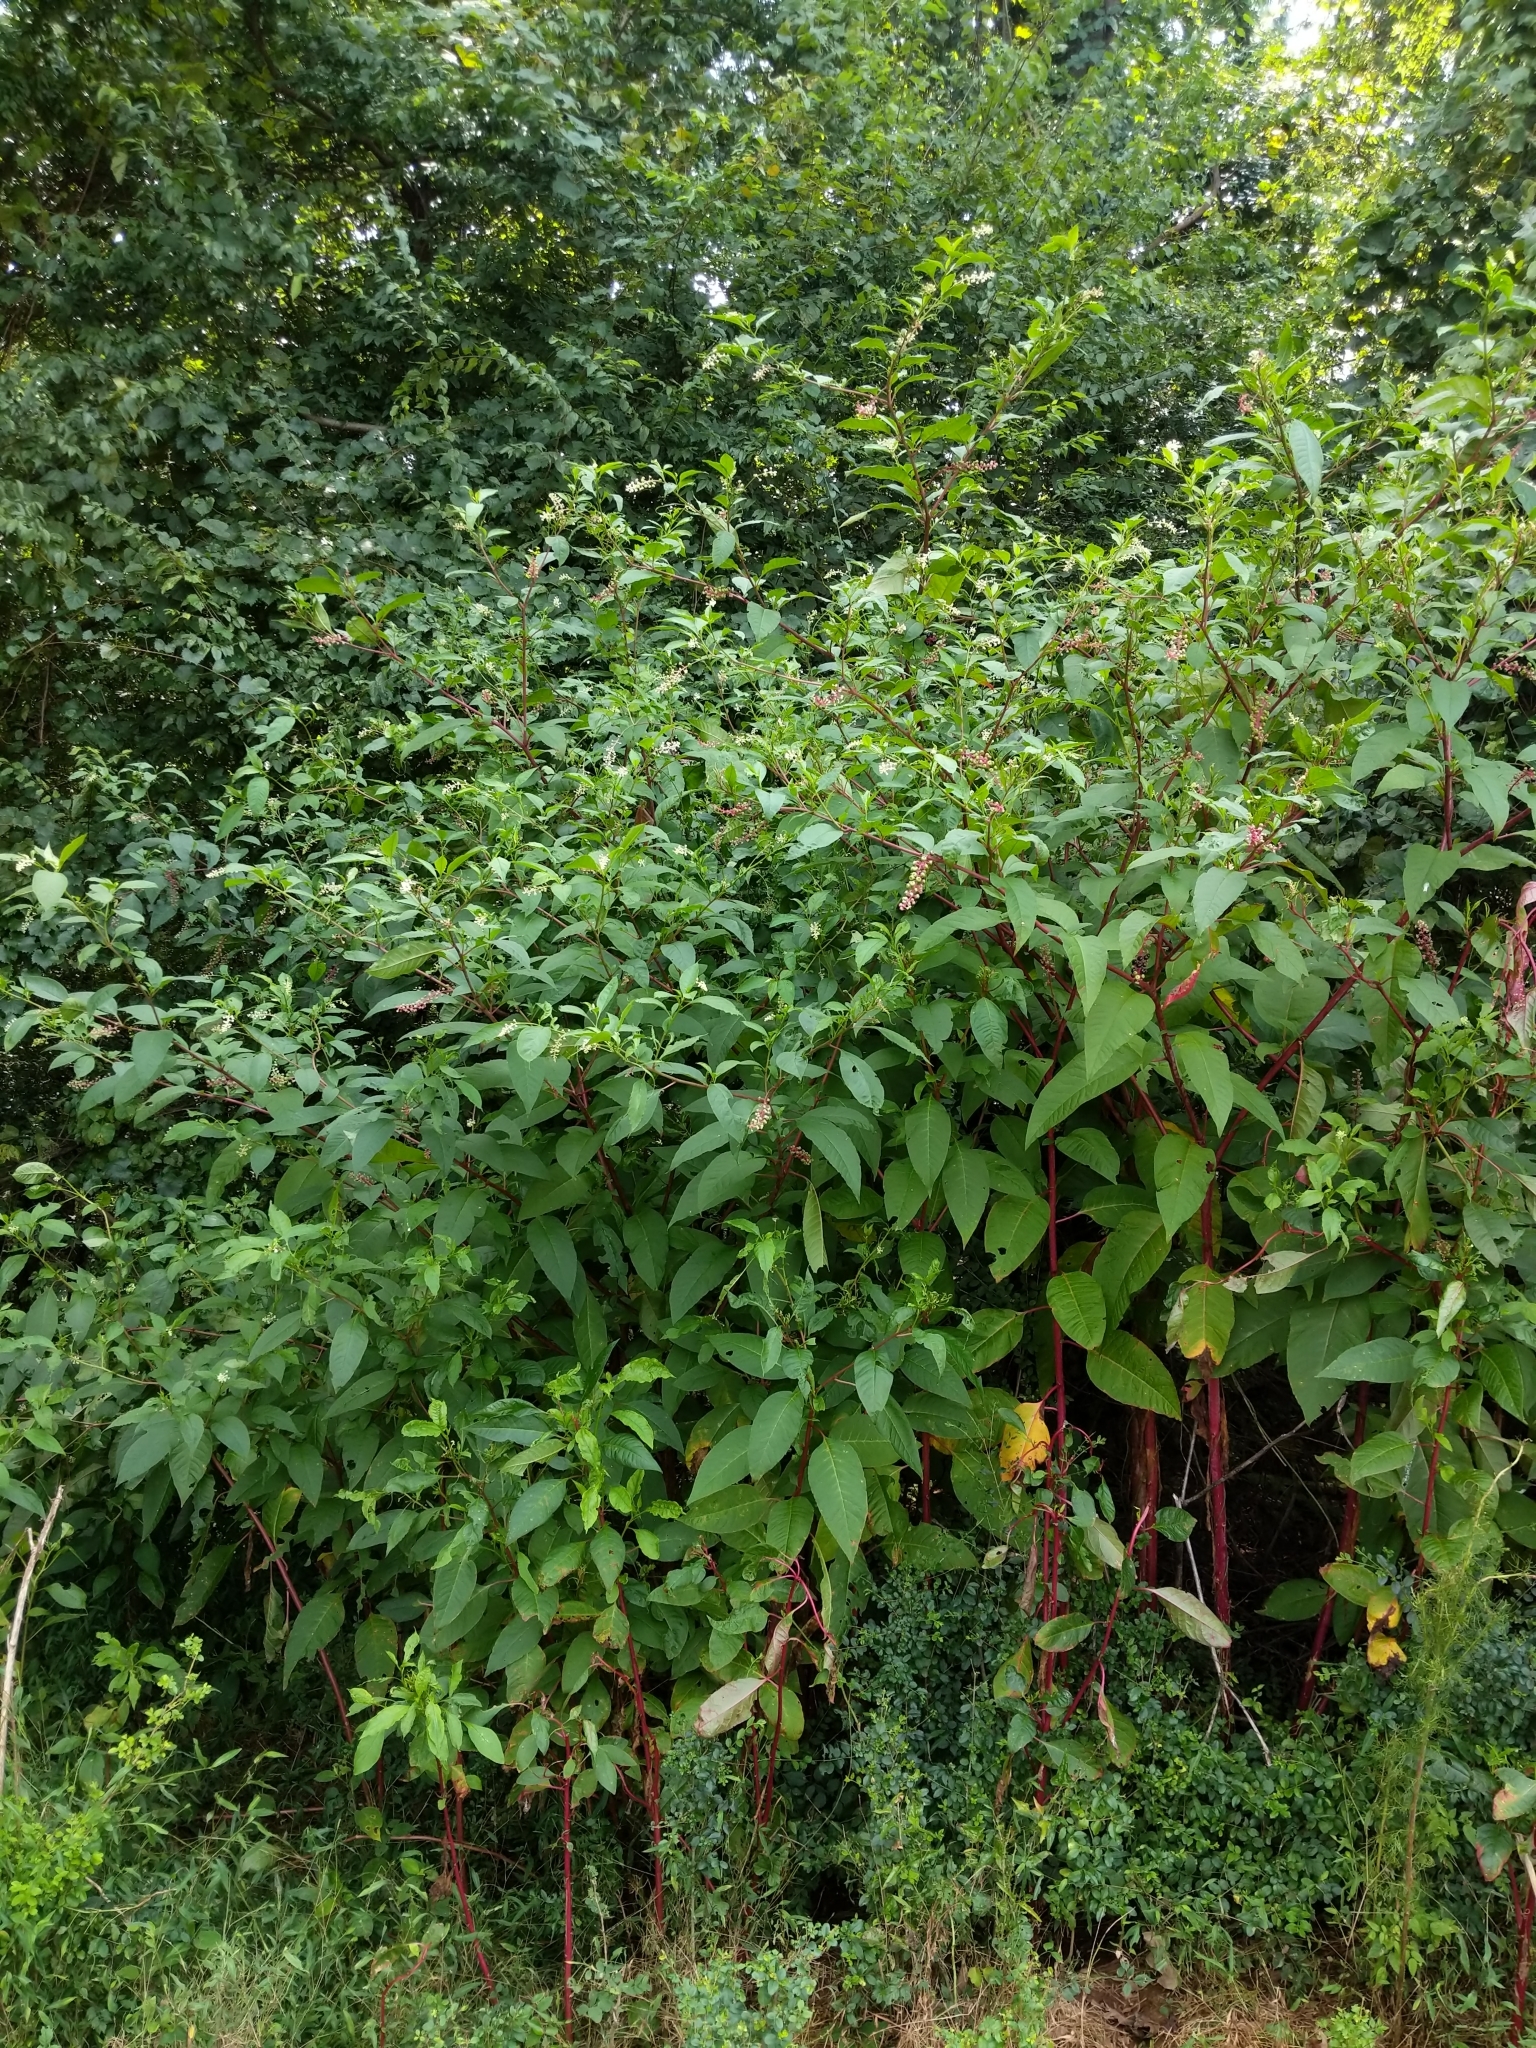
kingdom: Plantae
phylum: Tracheophyta
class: Magnoliopsida
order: Caryophyllales
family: Phytolaccaceae
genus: Phytolacca
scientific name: Phytolacca americana
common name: American pokeweed
